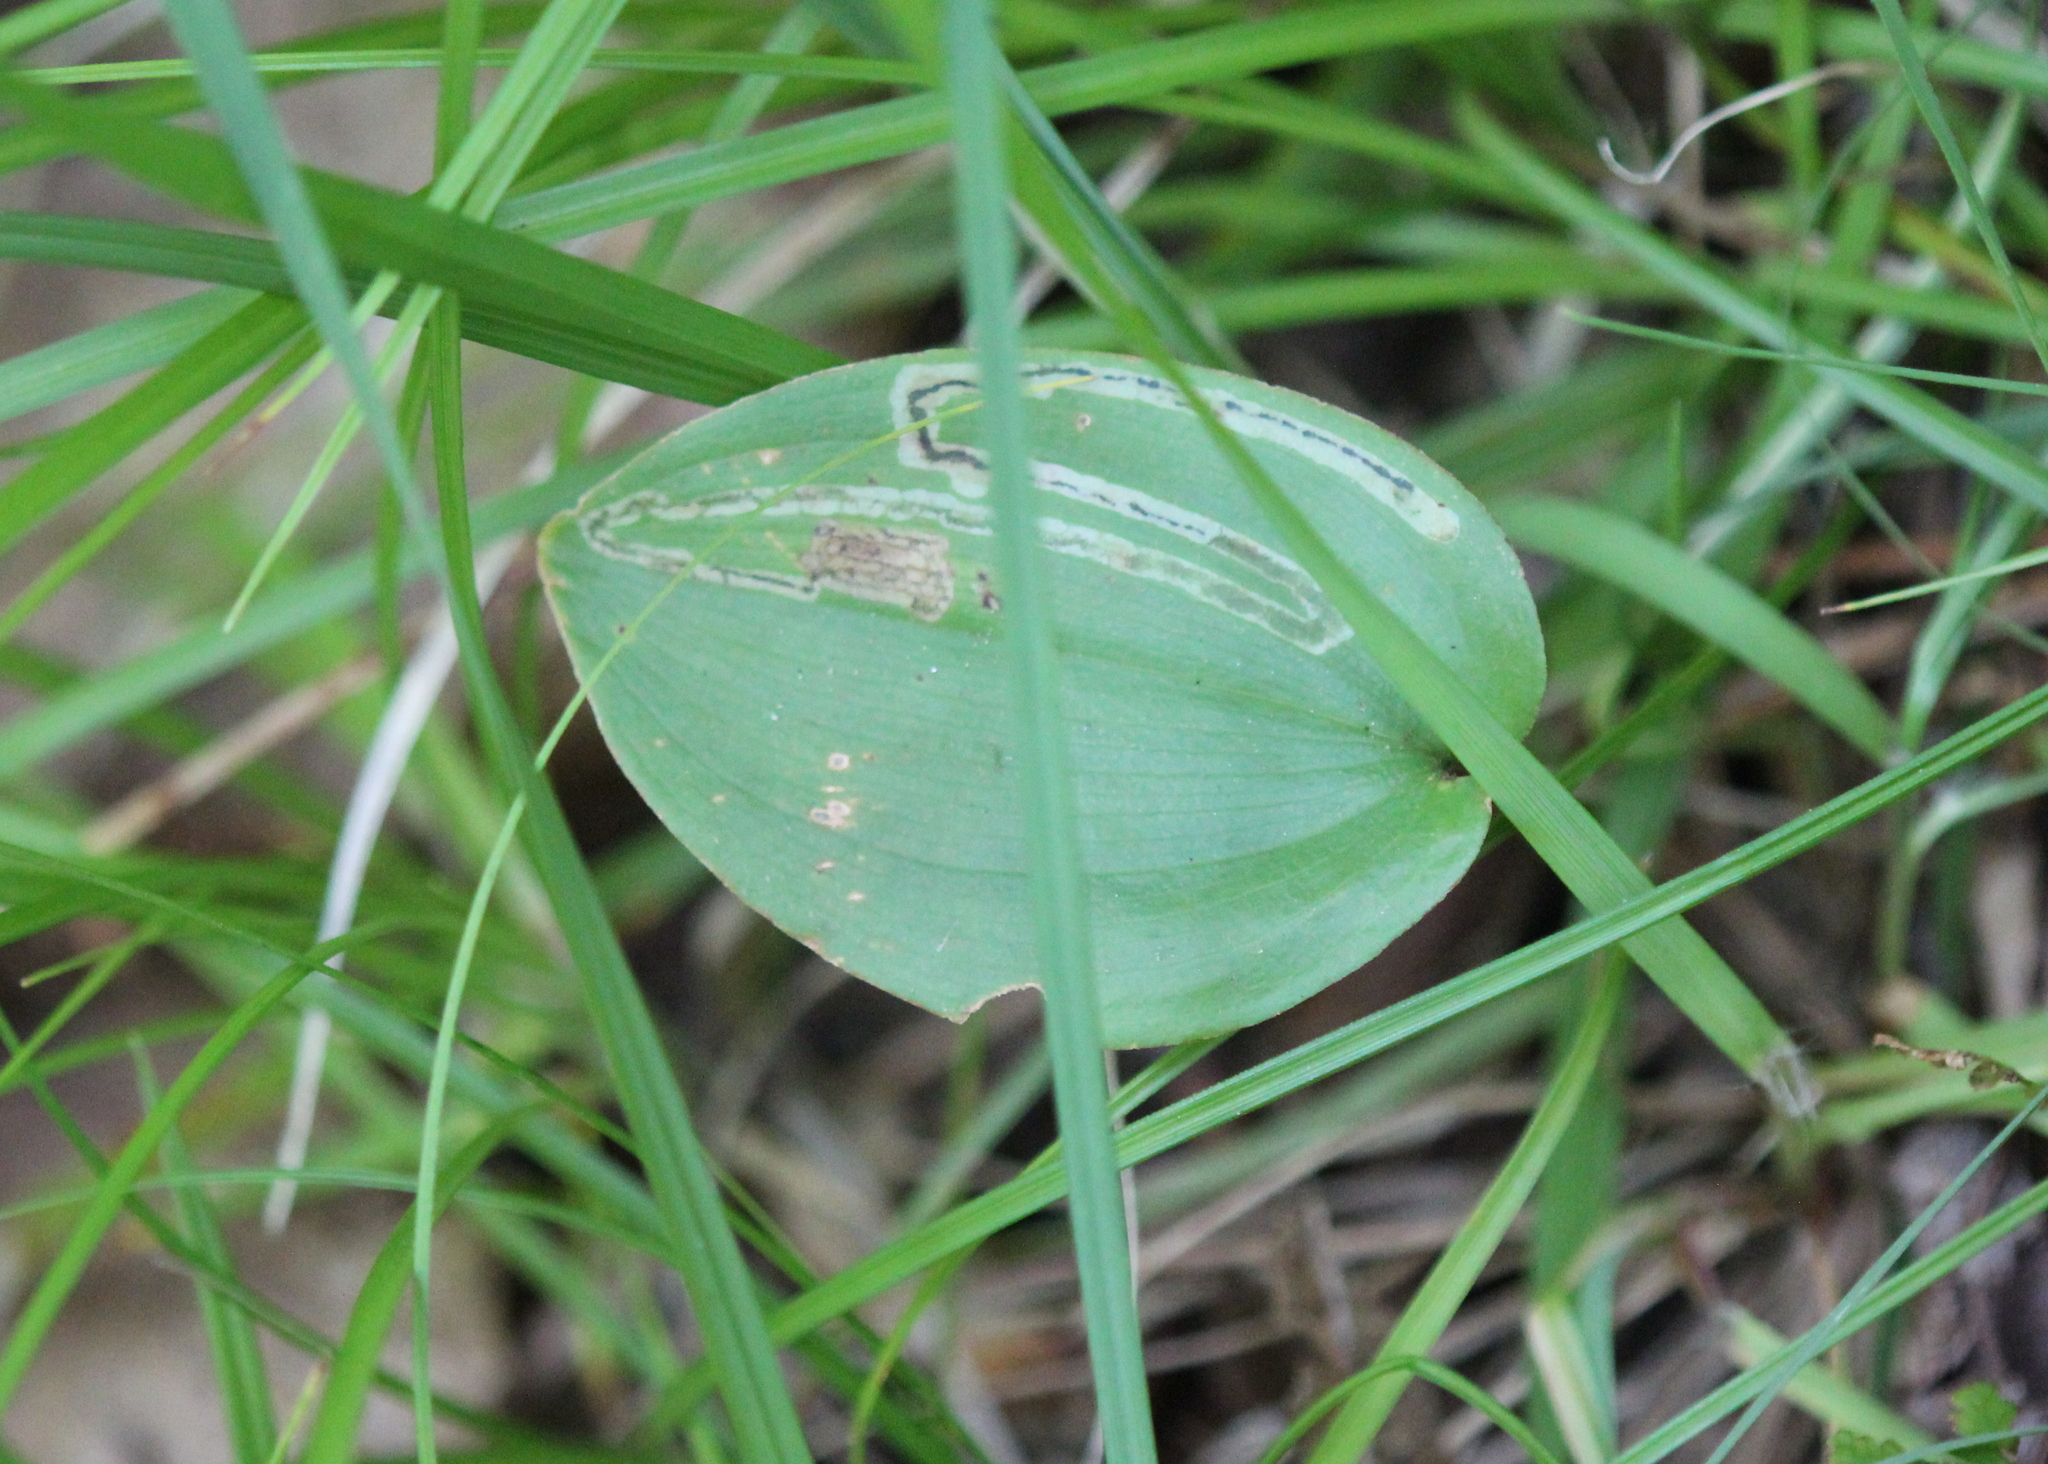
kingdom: Animalia
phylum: Arthropoda
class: Insecta
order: Diptera
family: Agromyzidae
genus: Liriomyza
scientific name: Liriomyza smilacinae
